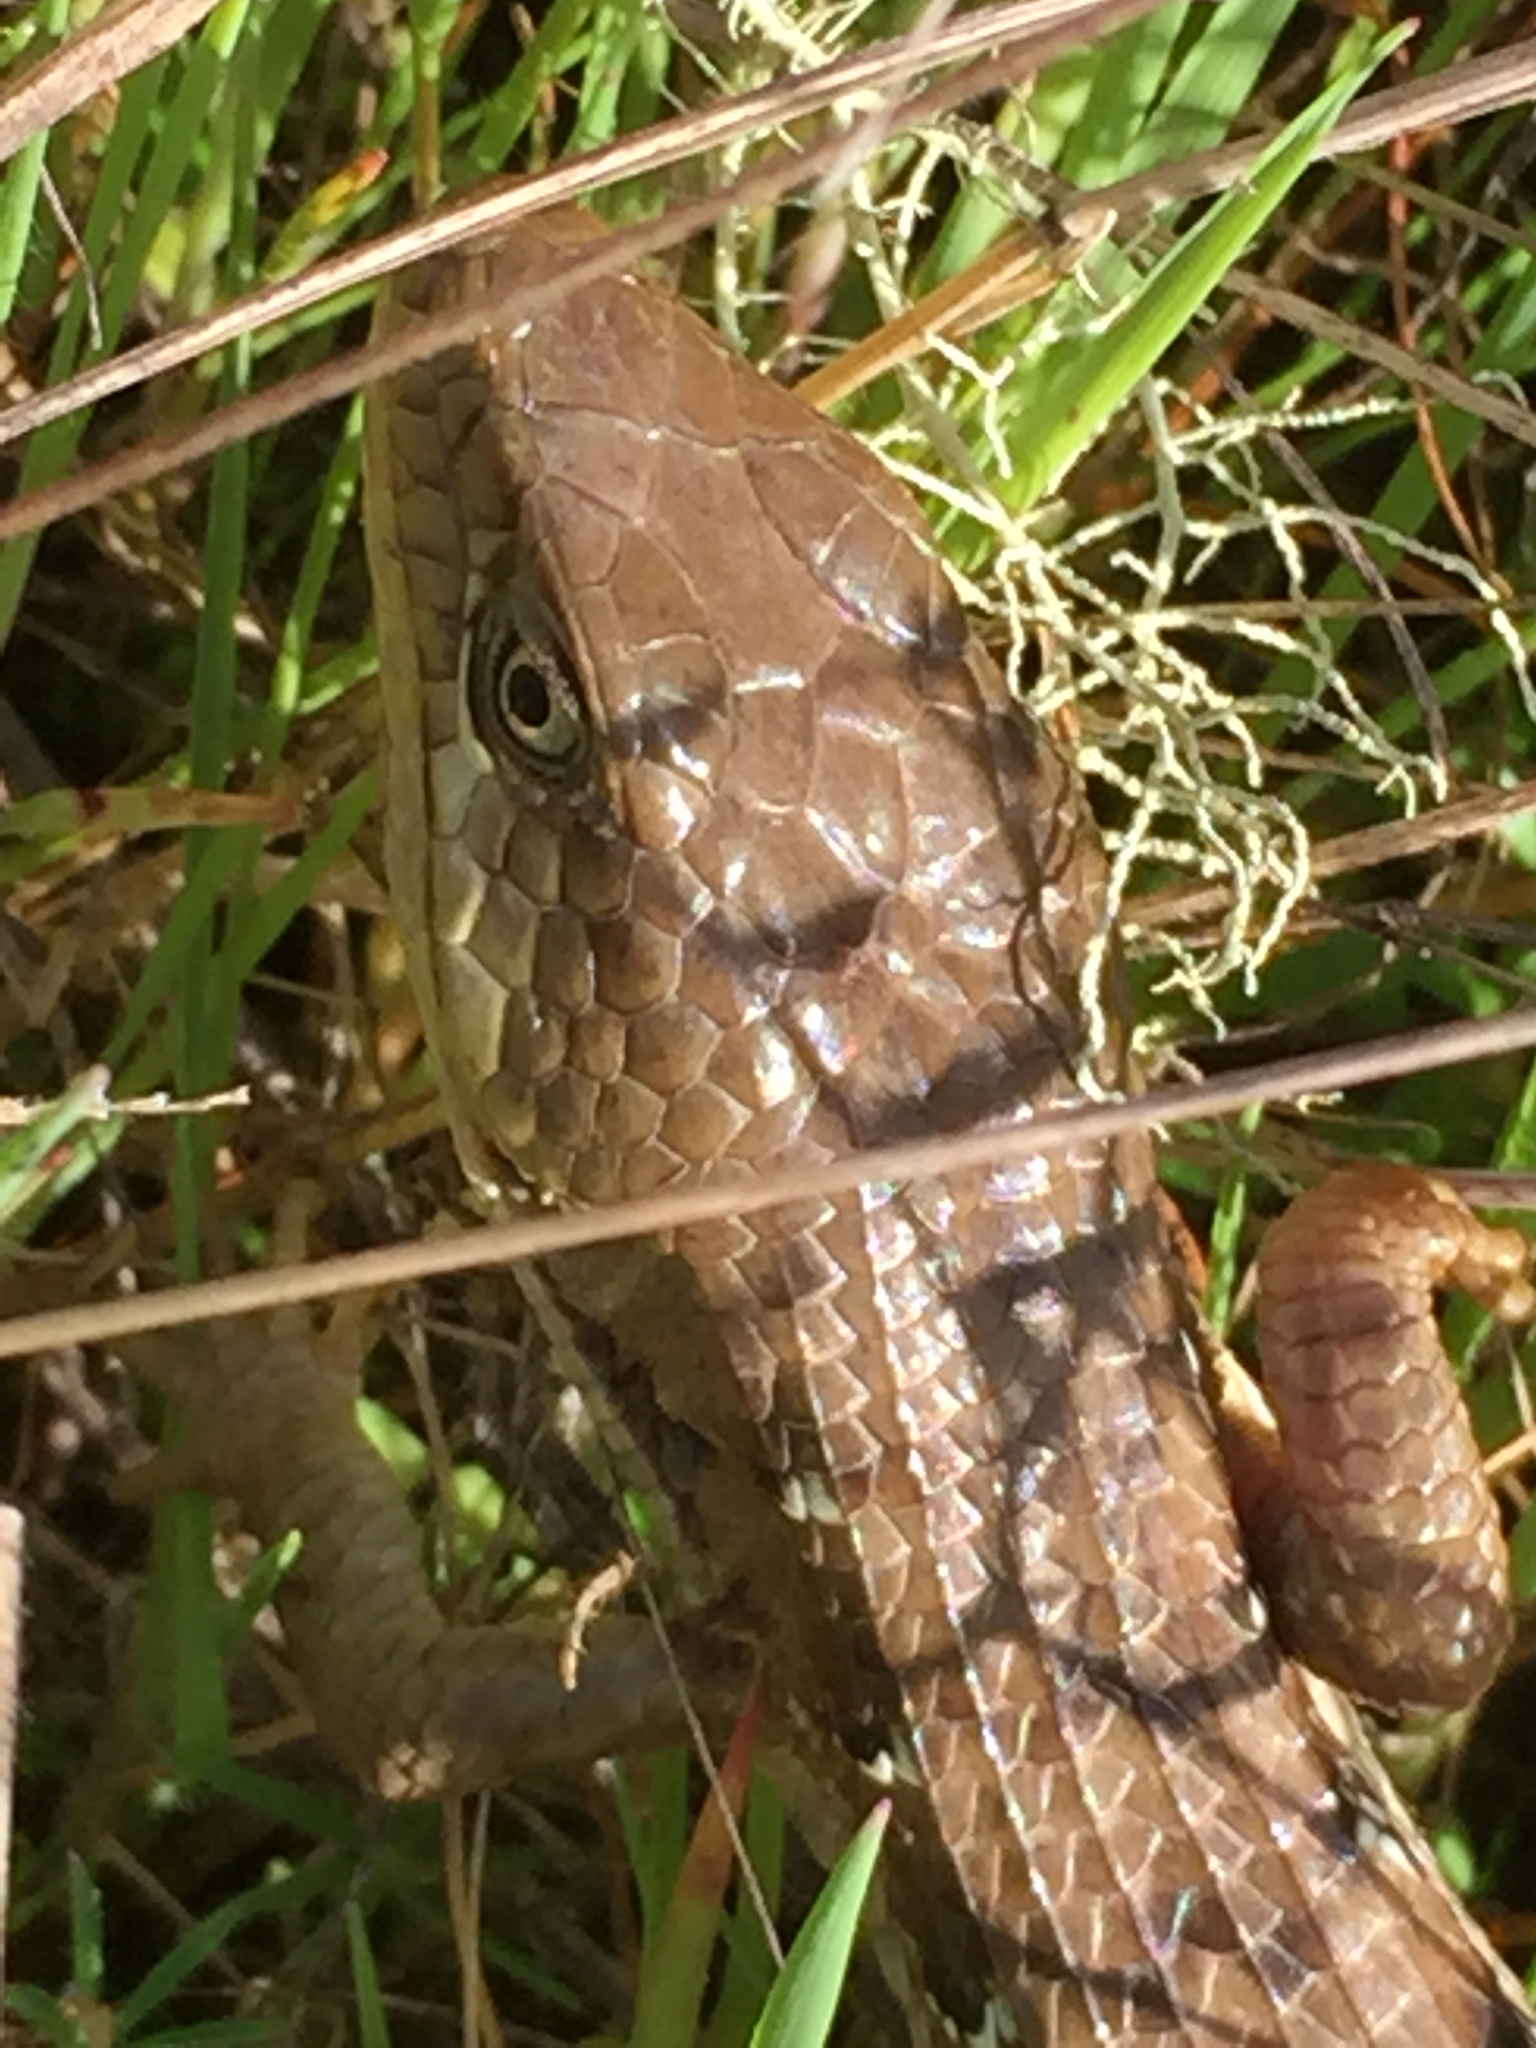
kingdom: Animalia
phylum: Chordata
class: Squamata
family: Anguidae
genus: Elgaria
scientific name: Elgaria multicarinata
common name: Southern alligator lizard
